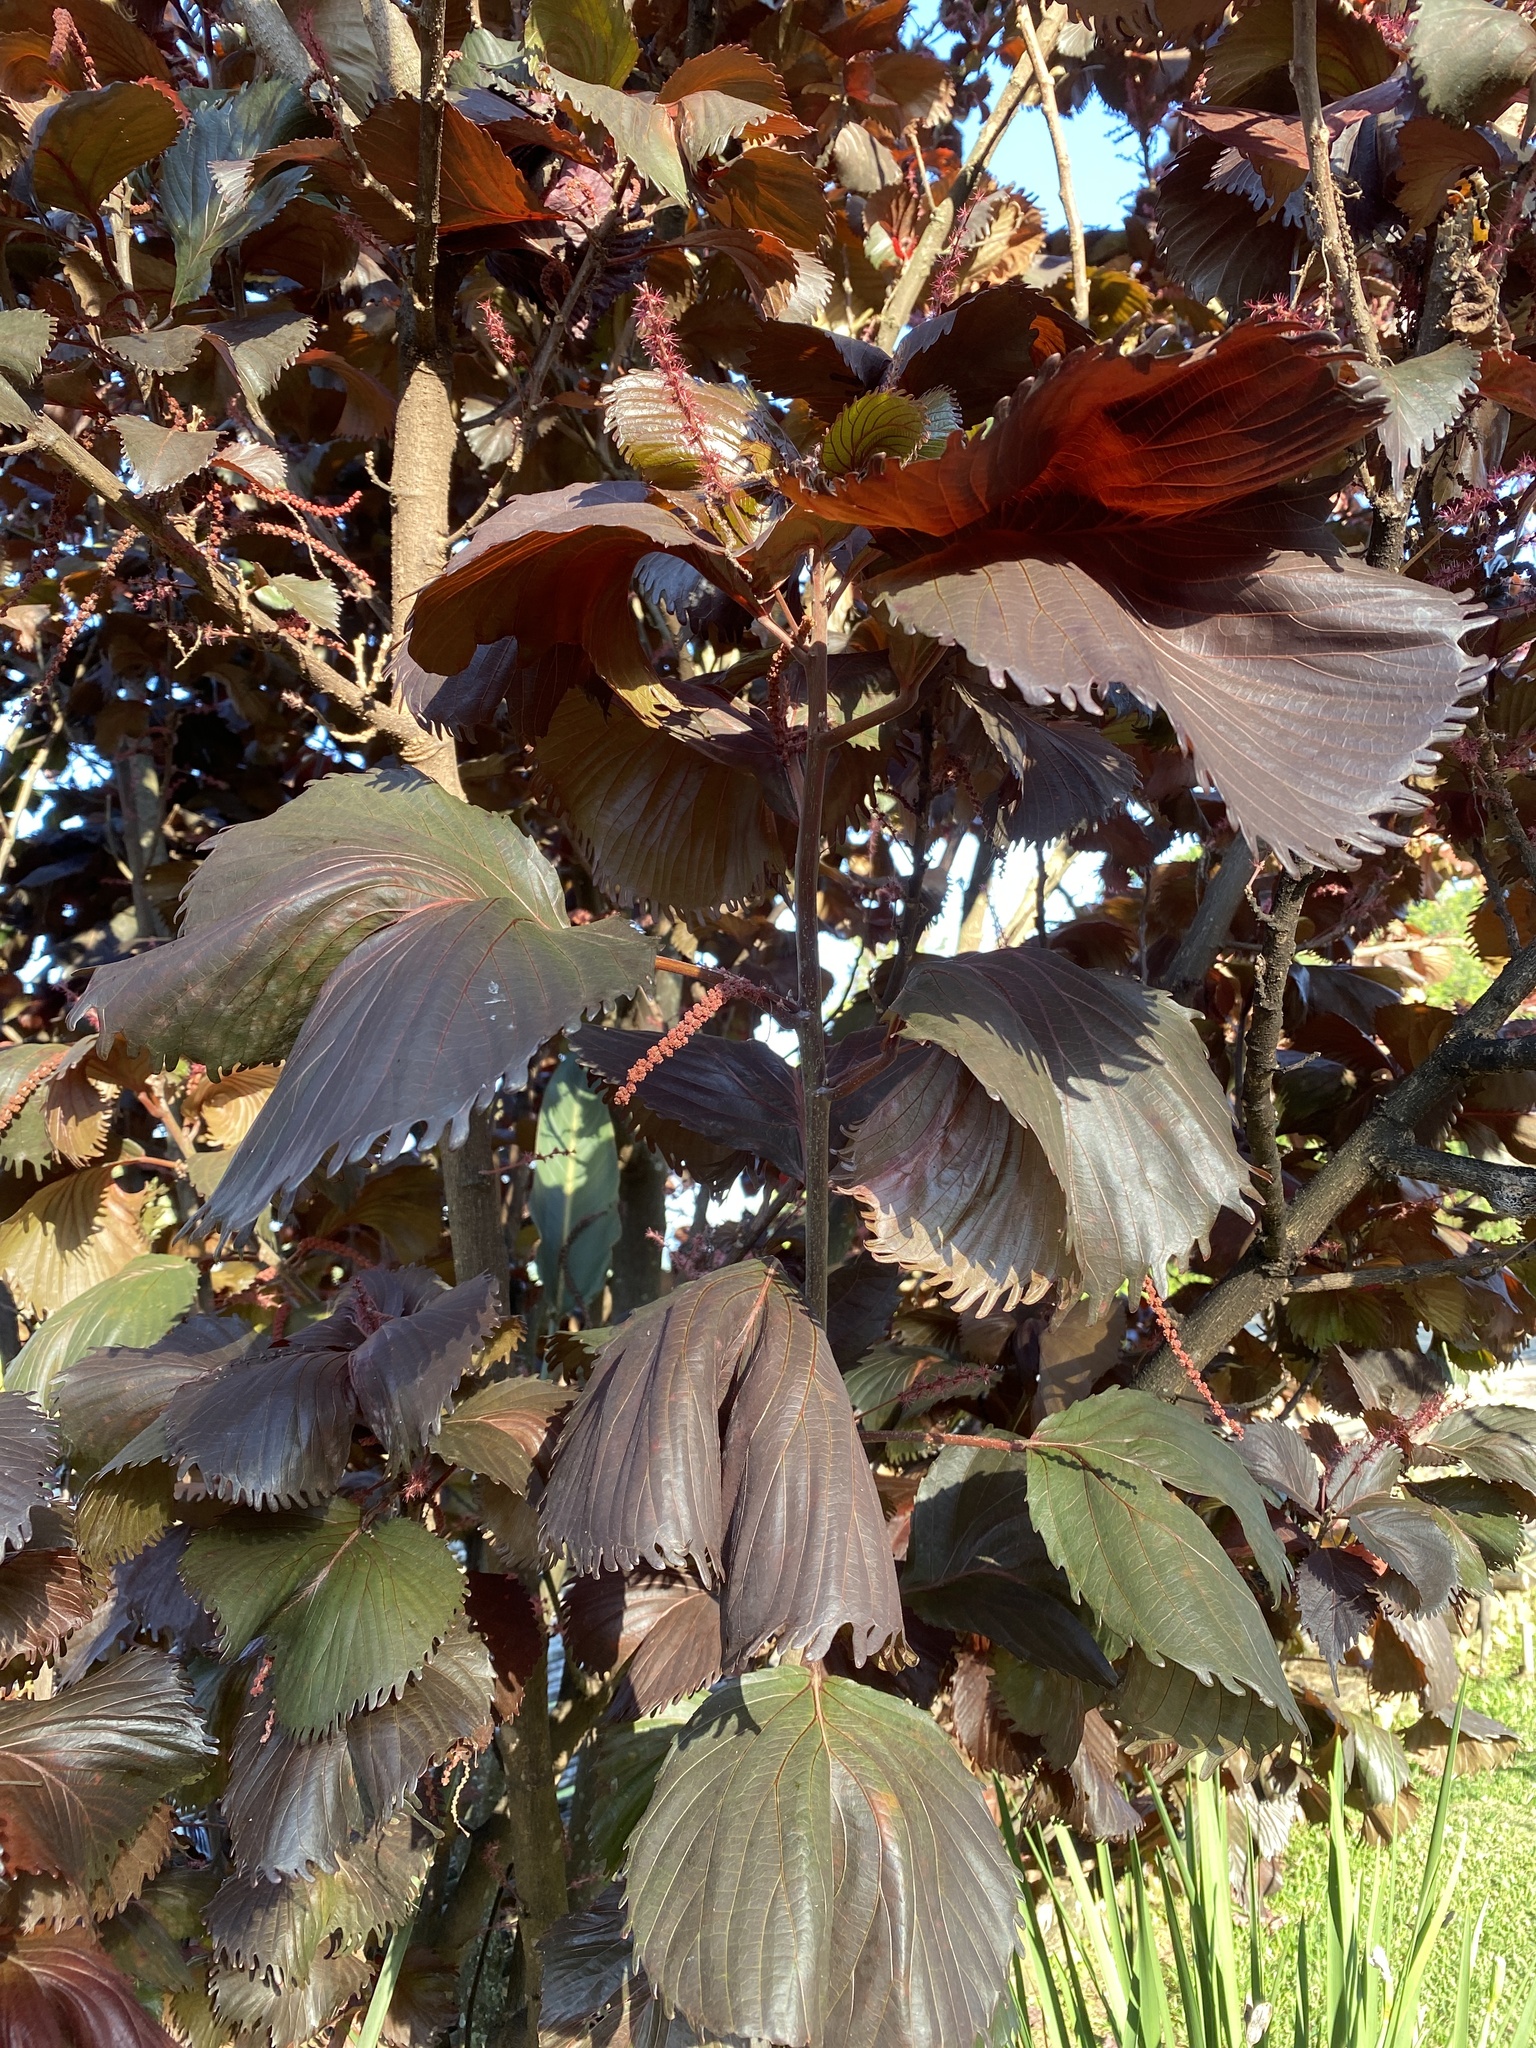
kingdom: Plantae
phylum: Tracheophyta
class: Magnoliopsida
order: Malpighiales
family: Euphorbiaceae
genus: Acalypha
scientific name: Acalypha wilkesiana
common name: Jacob's coat
